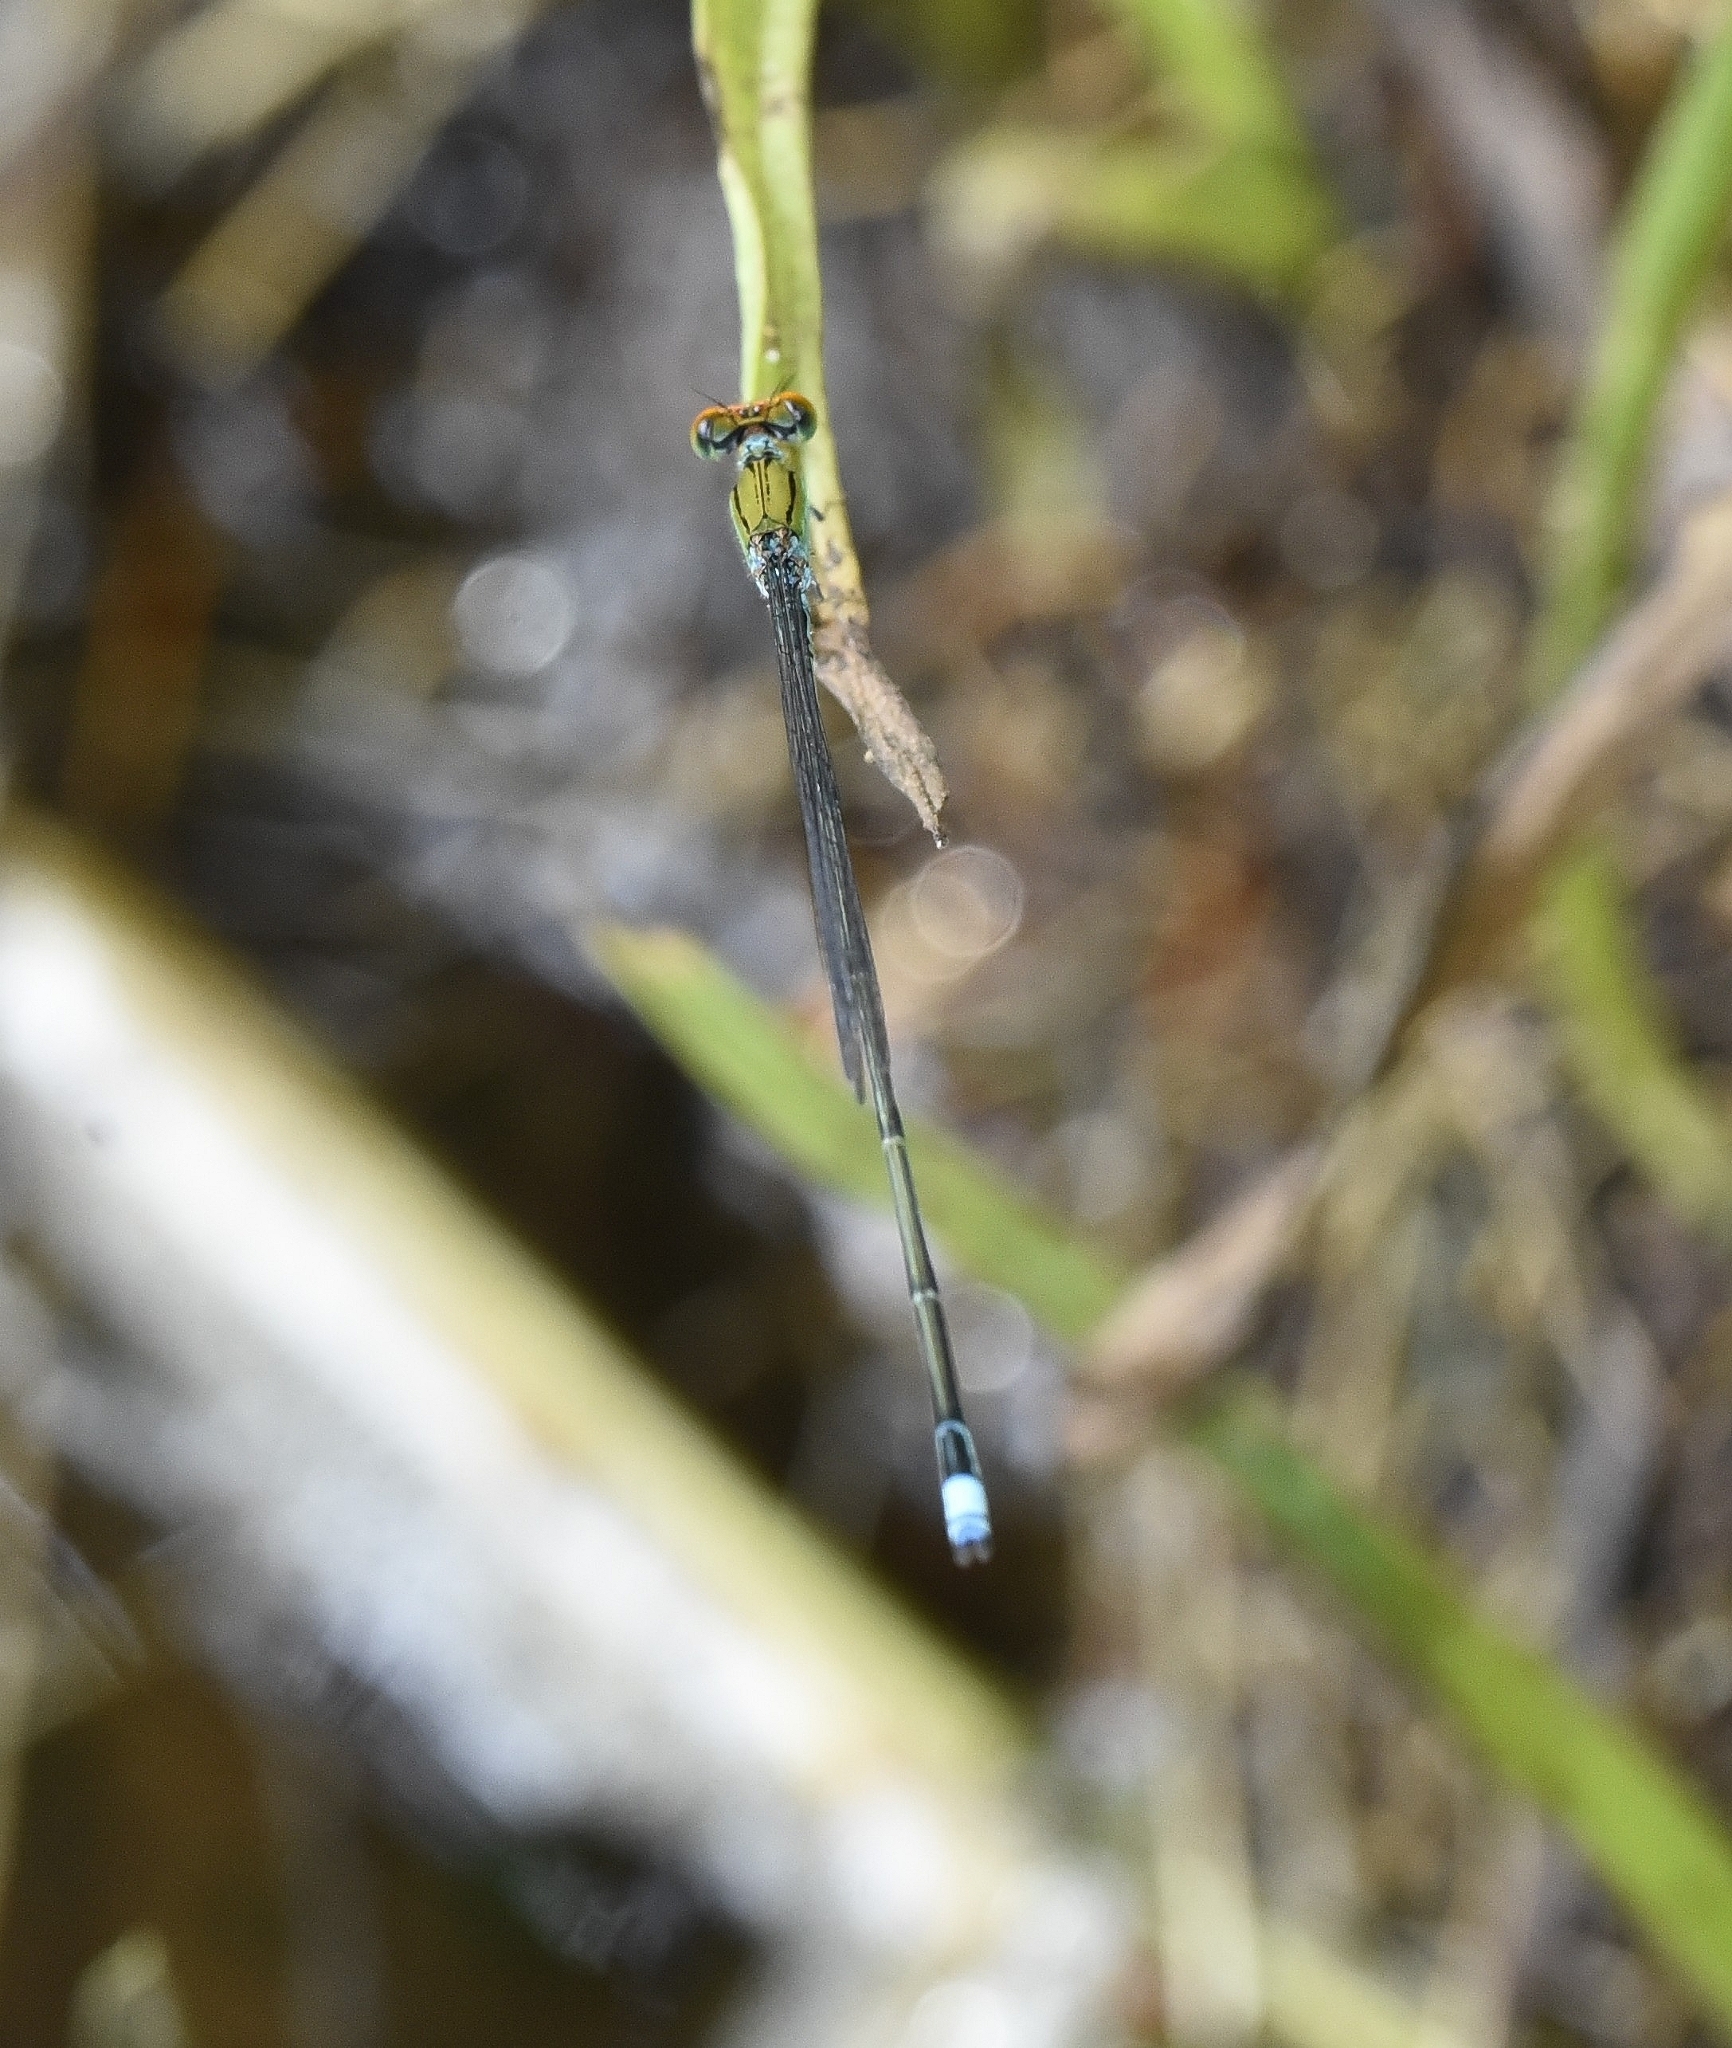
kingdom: Animalia
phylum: Arthropoda
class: Insecta
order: Odonata
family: Coenagrionidae
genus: Pseudagrion
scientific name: Pseudagrion rubriceps
